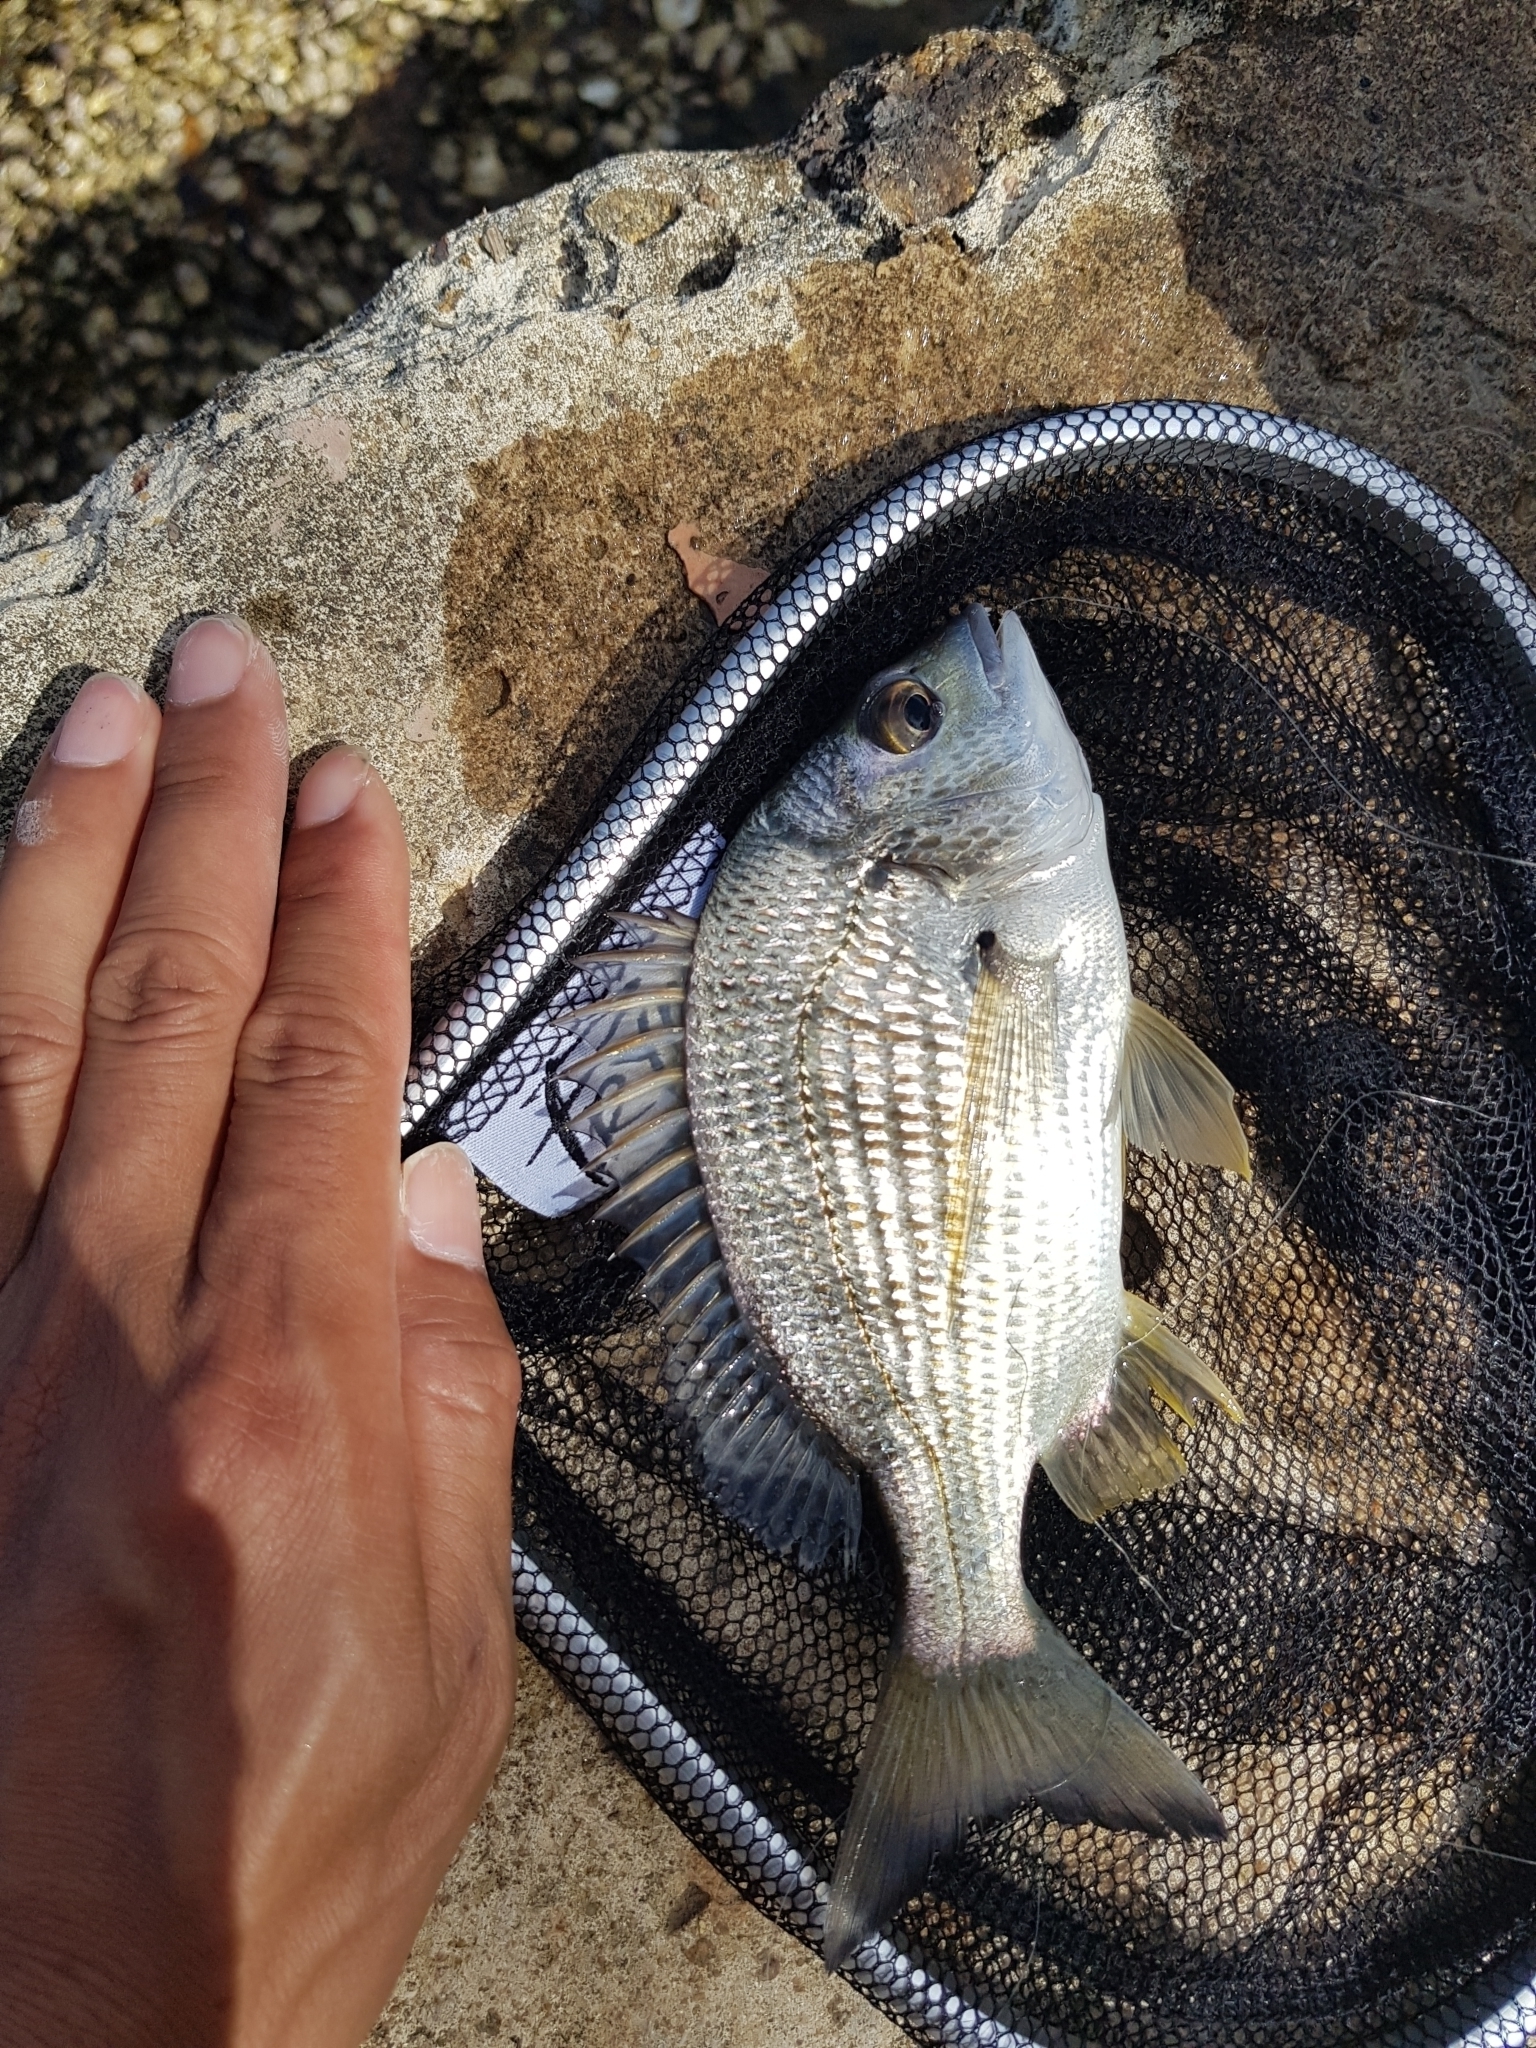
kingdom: Animalia
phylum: Chordata
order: Perciformes
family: Sparidae
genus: Acanthopagrus
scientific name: Acanthopagrus australis
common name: Surf bream
